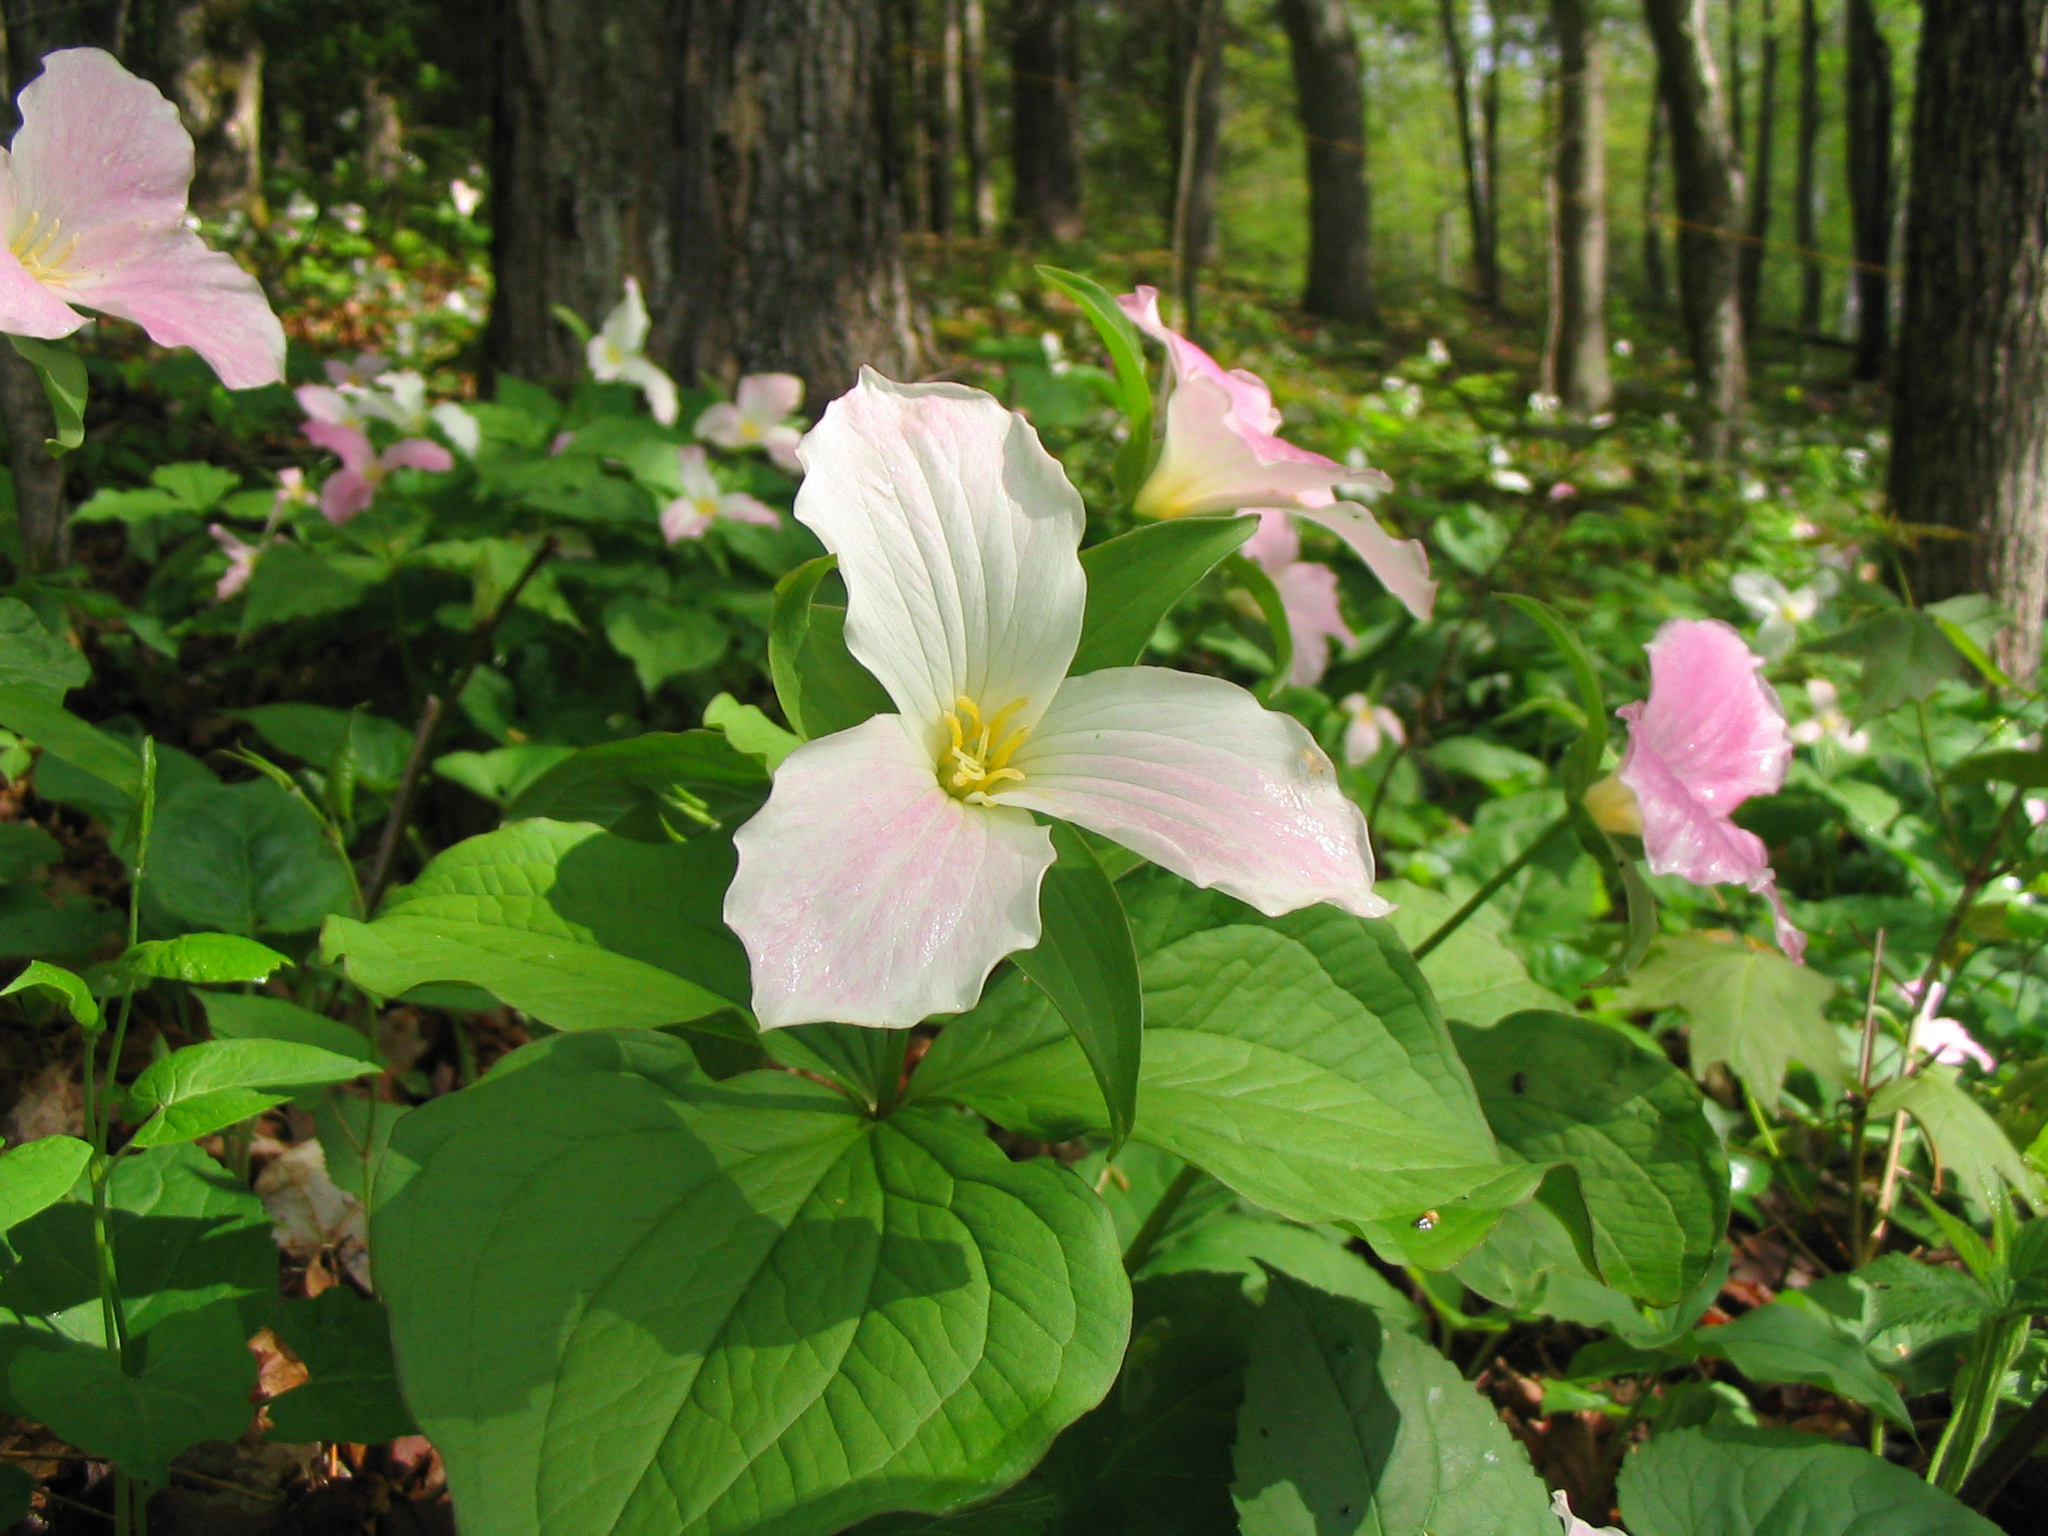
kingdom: Plantae
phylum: Tracheophyta
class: Liliopsida
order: Liliales
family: Melanthiaceae
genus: Trillium
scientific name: Trillium grandiflorum
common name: Great white trillium
